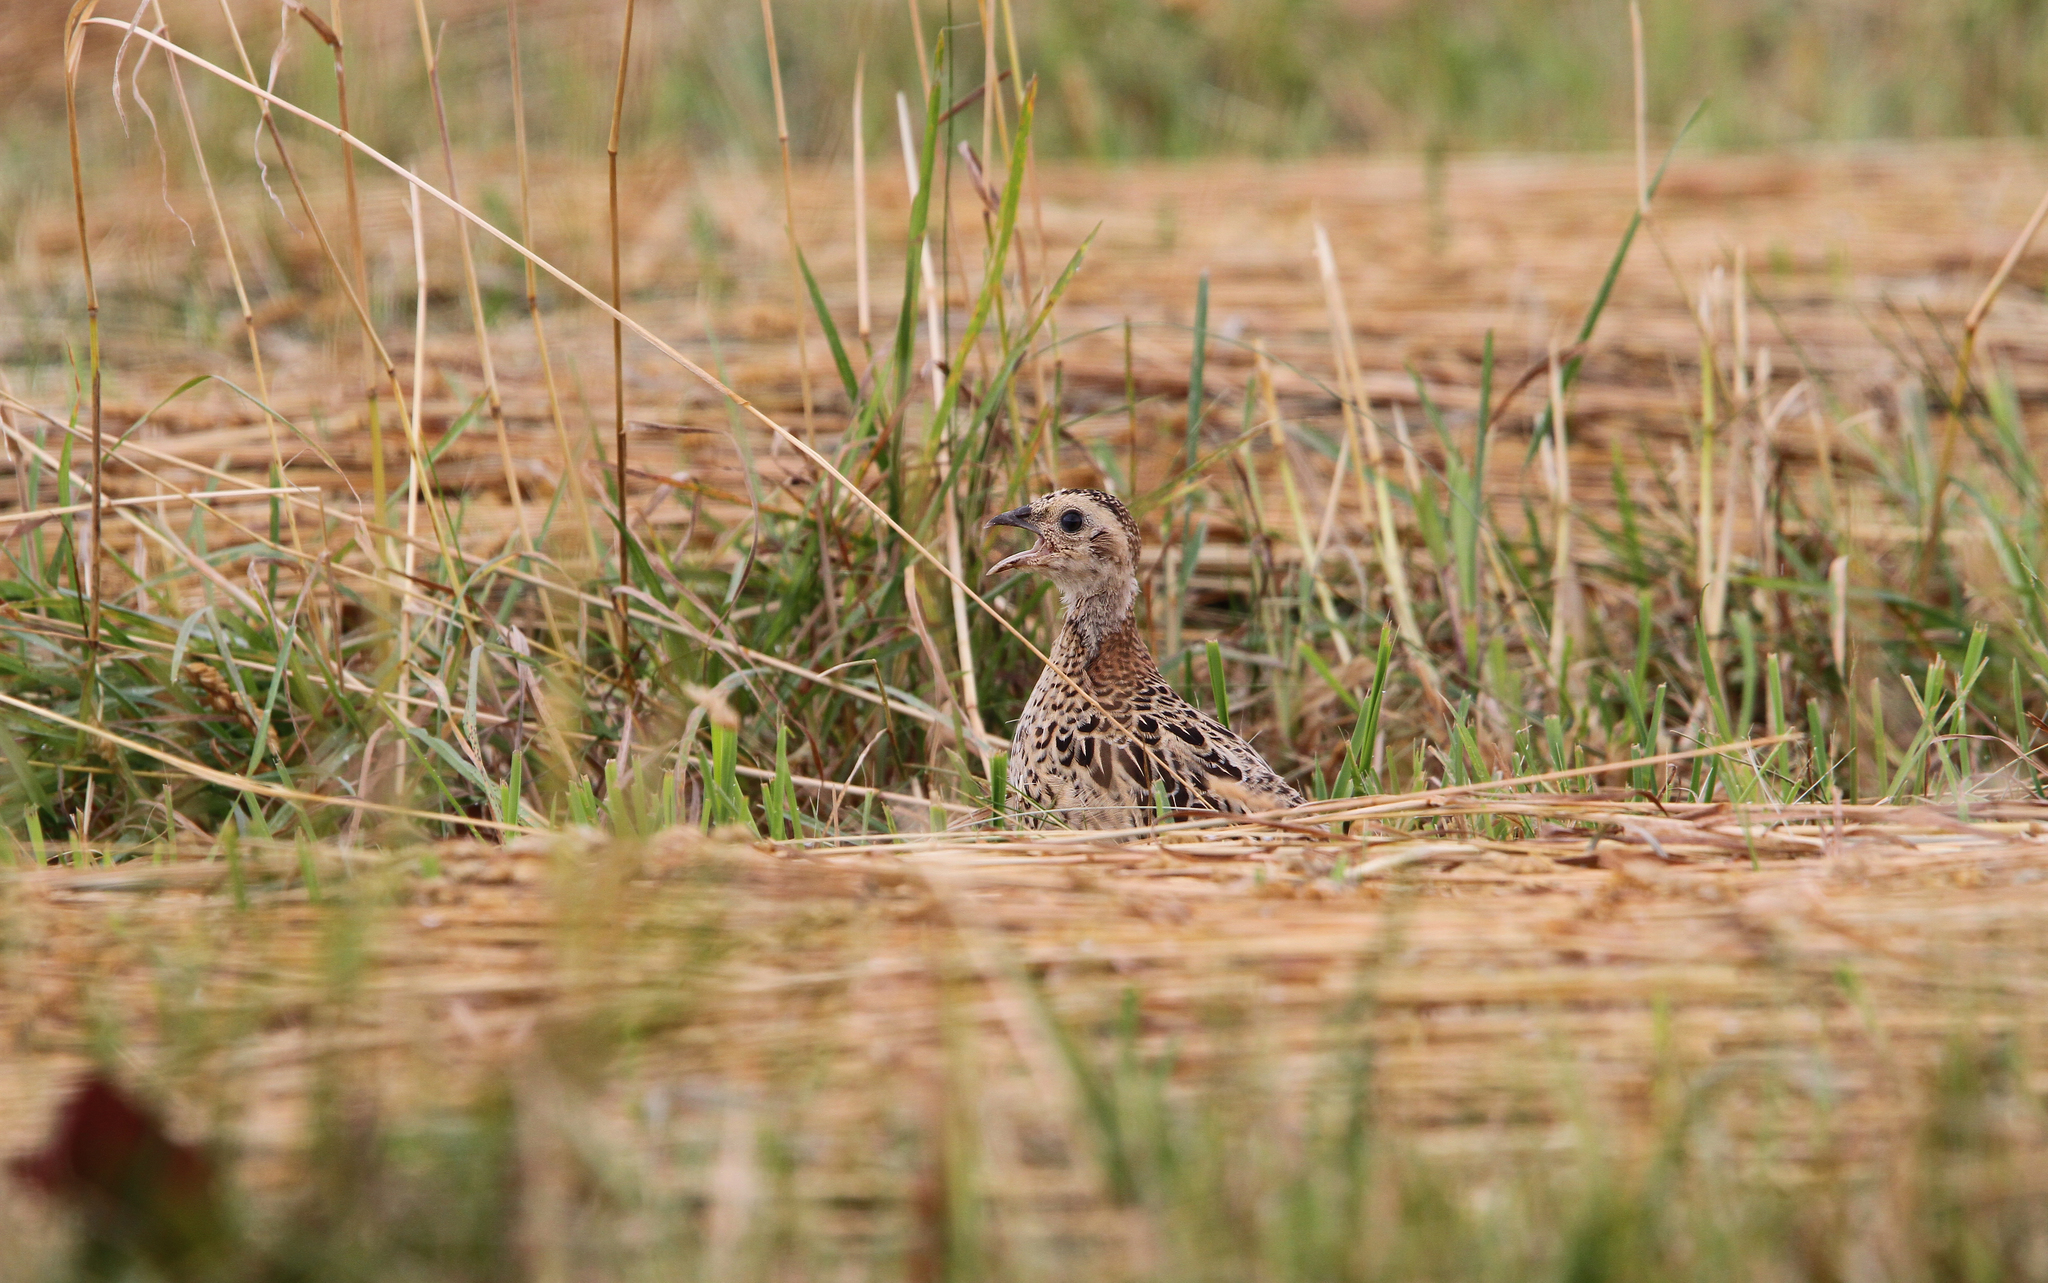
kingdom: Animalia
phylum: Chordata
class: Aves
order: Galliformes
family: Phasianidae
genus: Phasianus
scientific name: Phasianus colchicus
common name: Common pheasant
